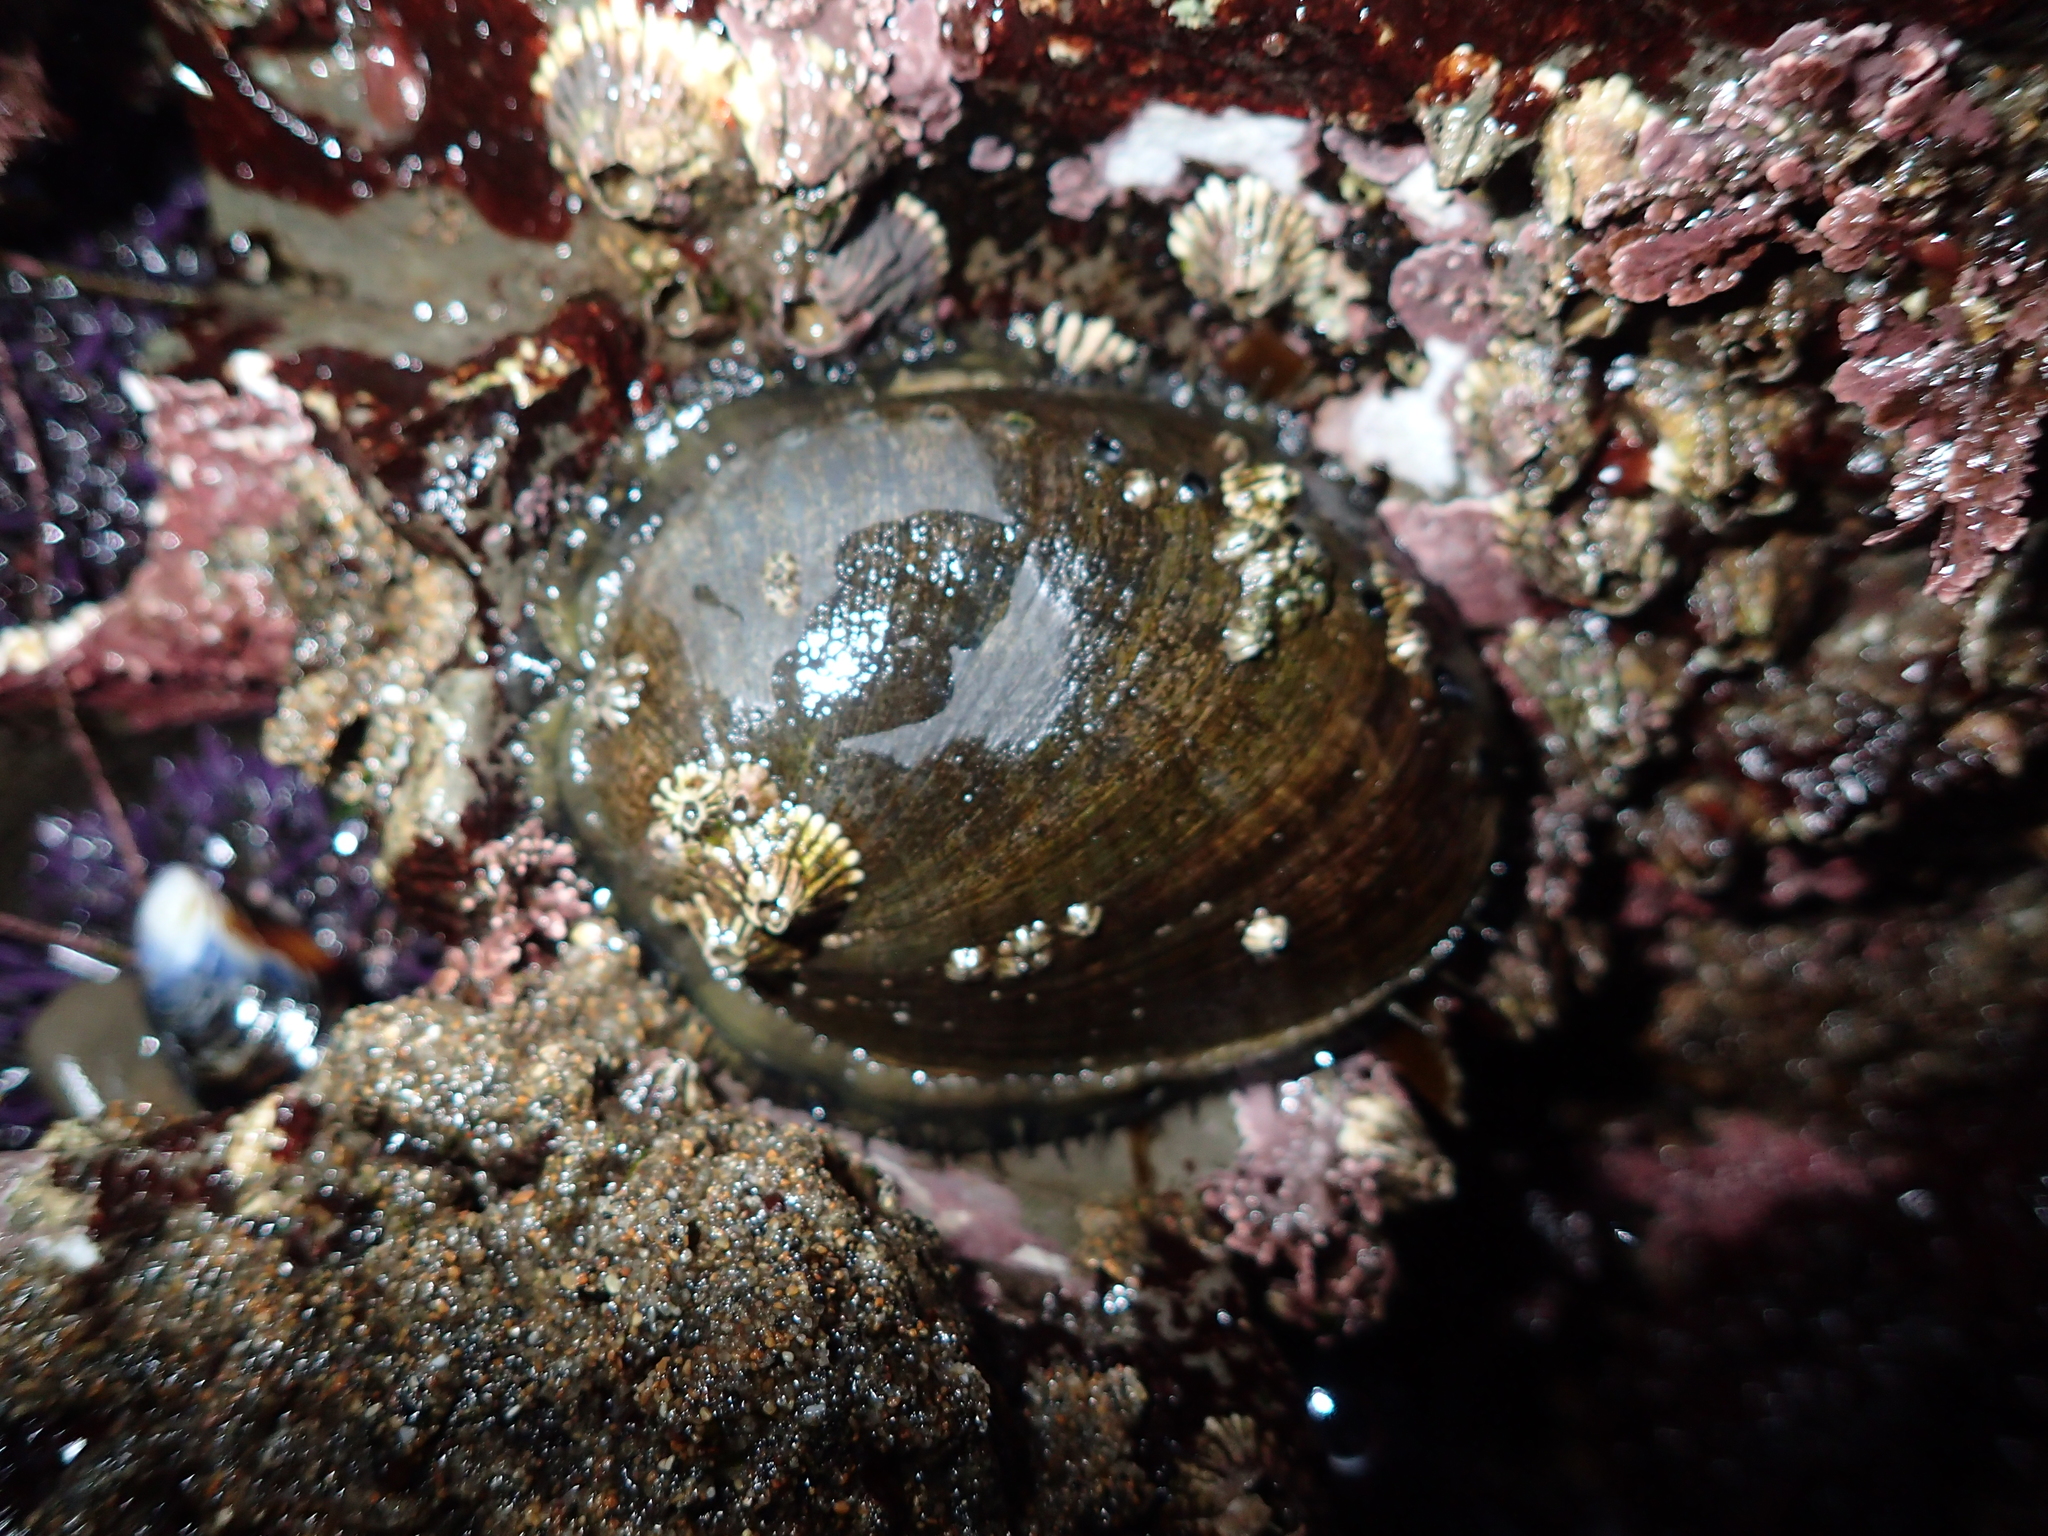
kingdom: Animalia
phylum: Mollusca
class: Gastropoda
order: Lepetellida
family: Haliotidae
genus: Haliotis
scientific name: Haliotis cracherodii
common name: Black abalone
